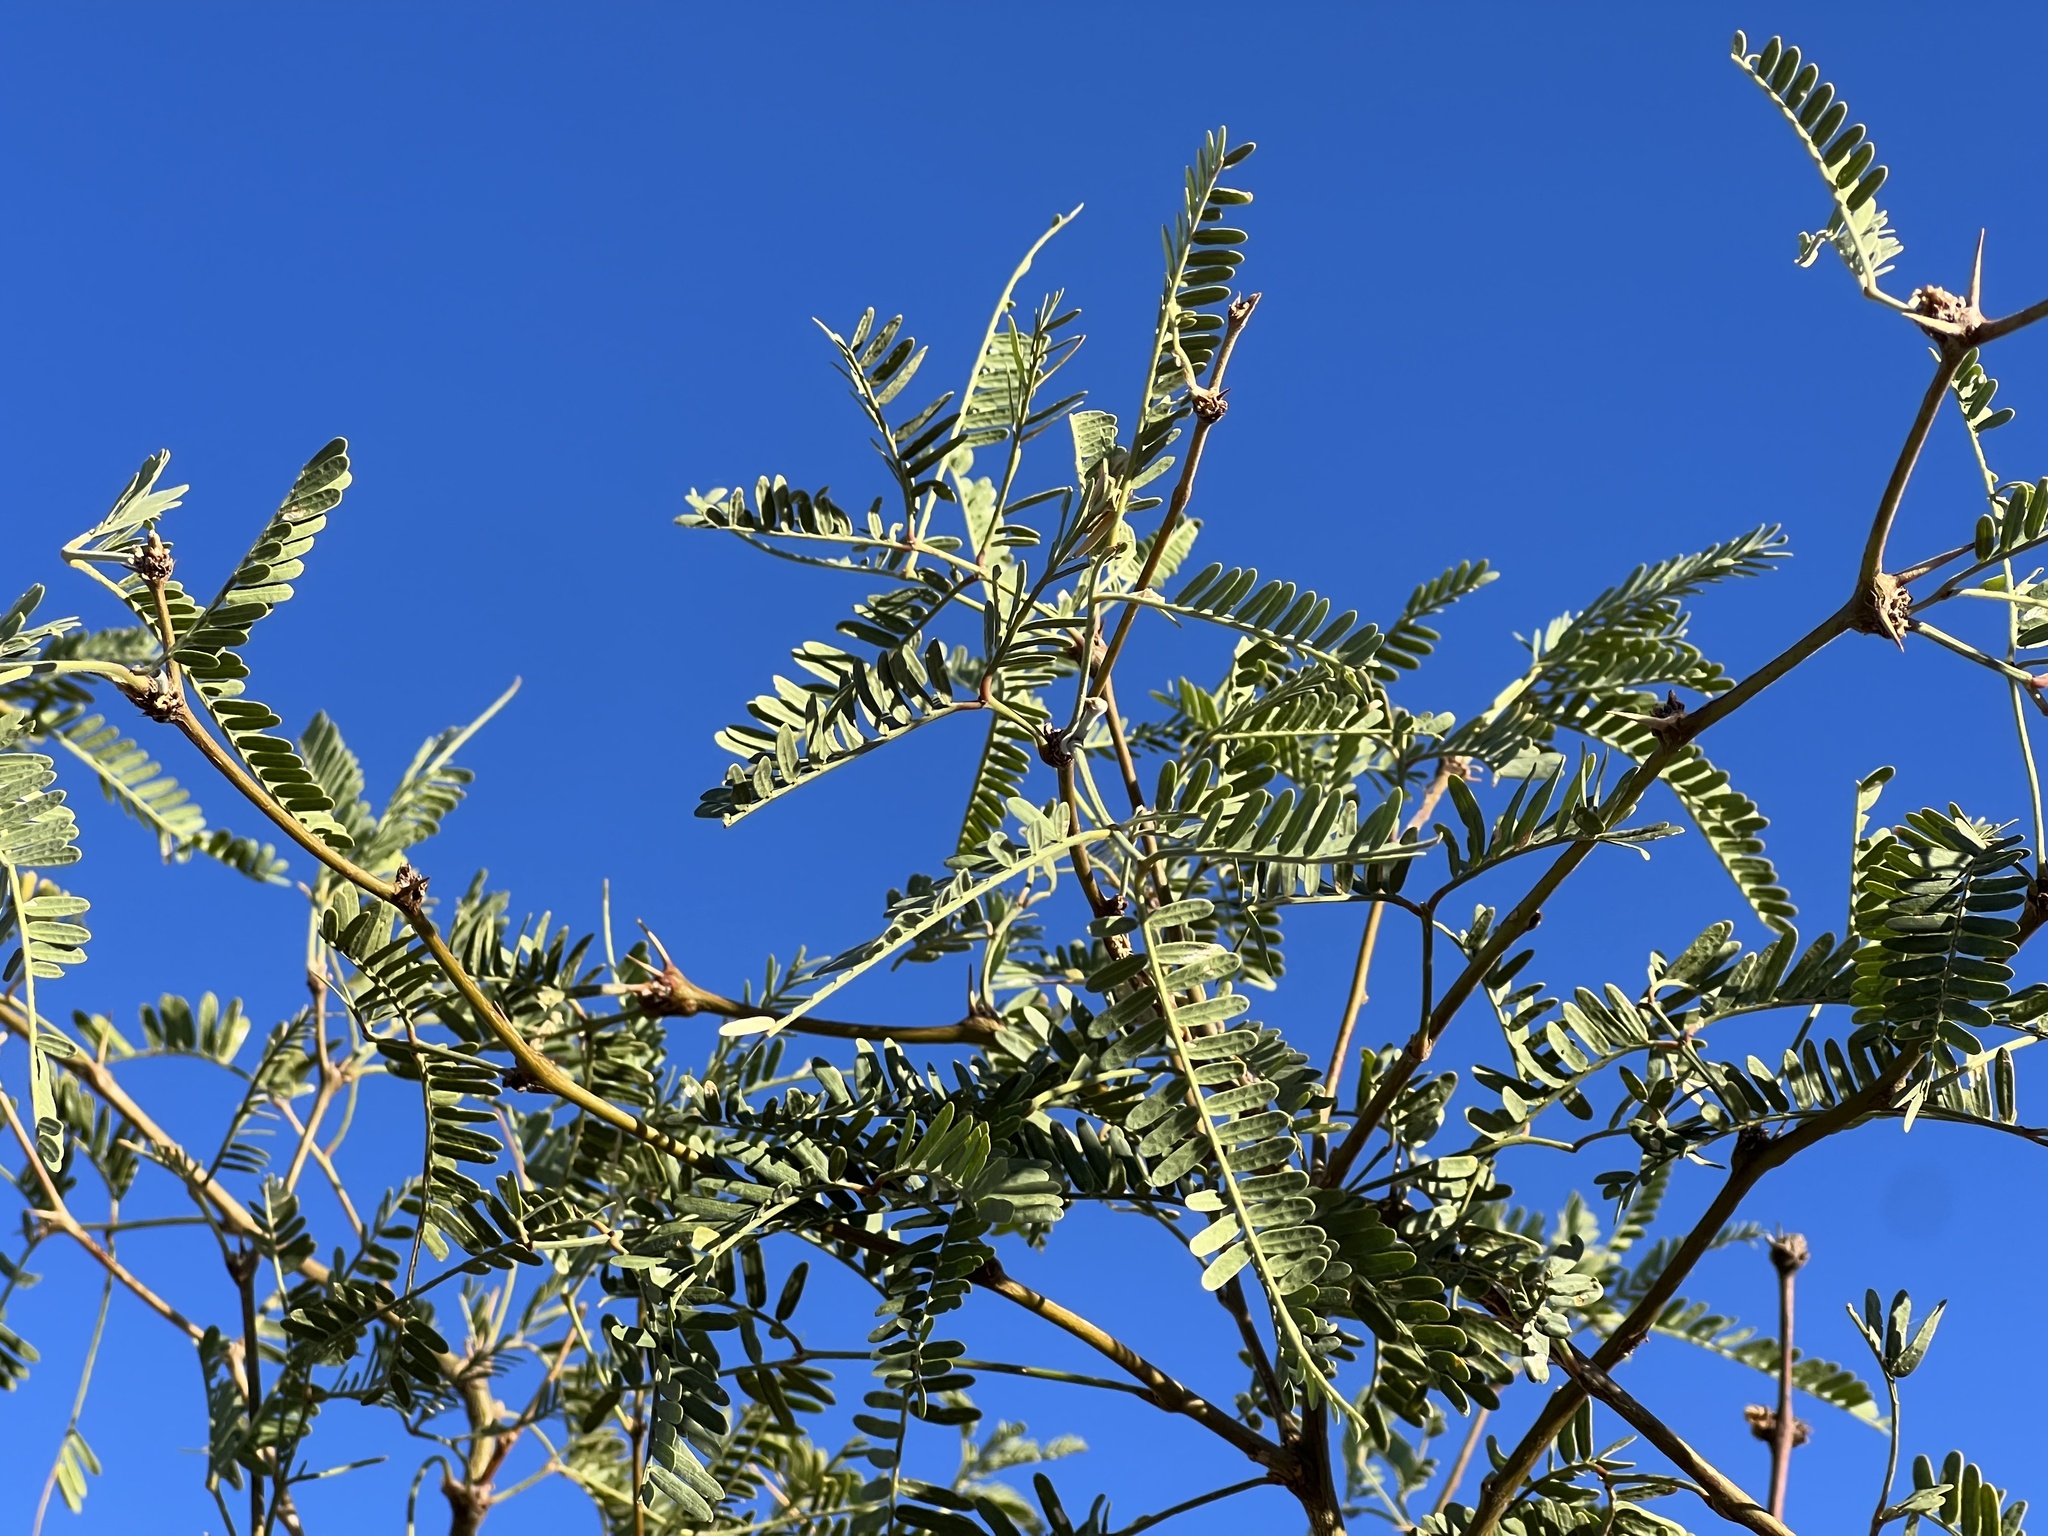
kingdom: Plantae
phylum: Tracheophyta
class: Magnoliopsida
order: Fabales
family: Fabaceae
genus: Prosopis
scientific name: Prosopis velutina
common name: Velvet mesquite
